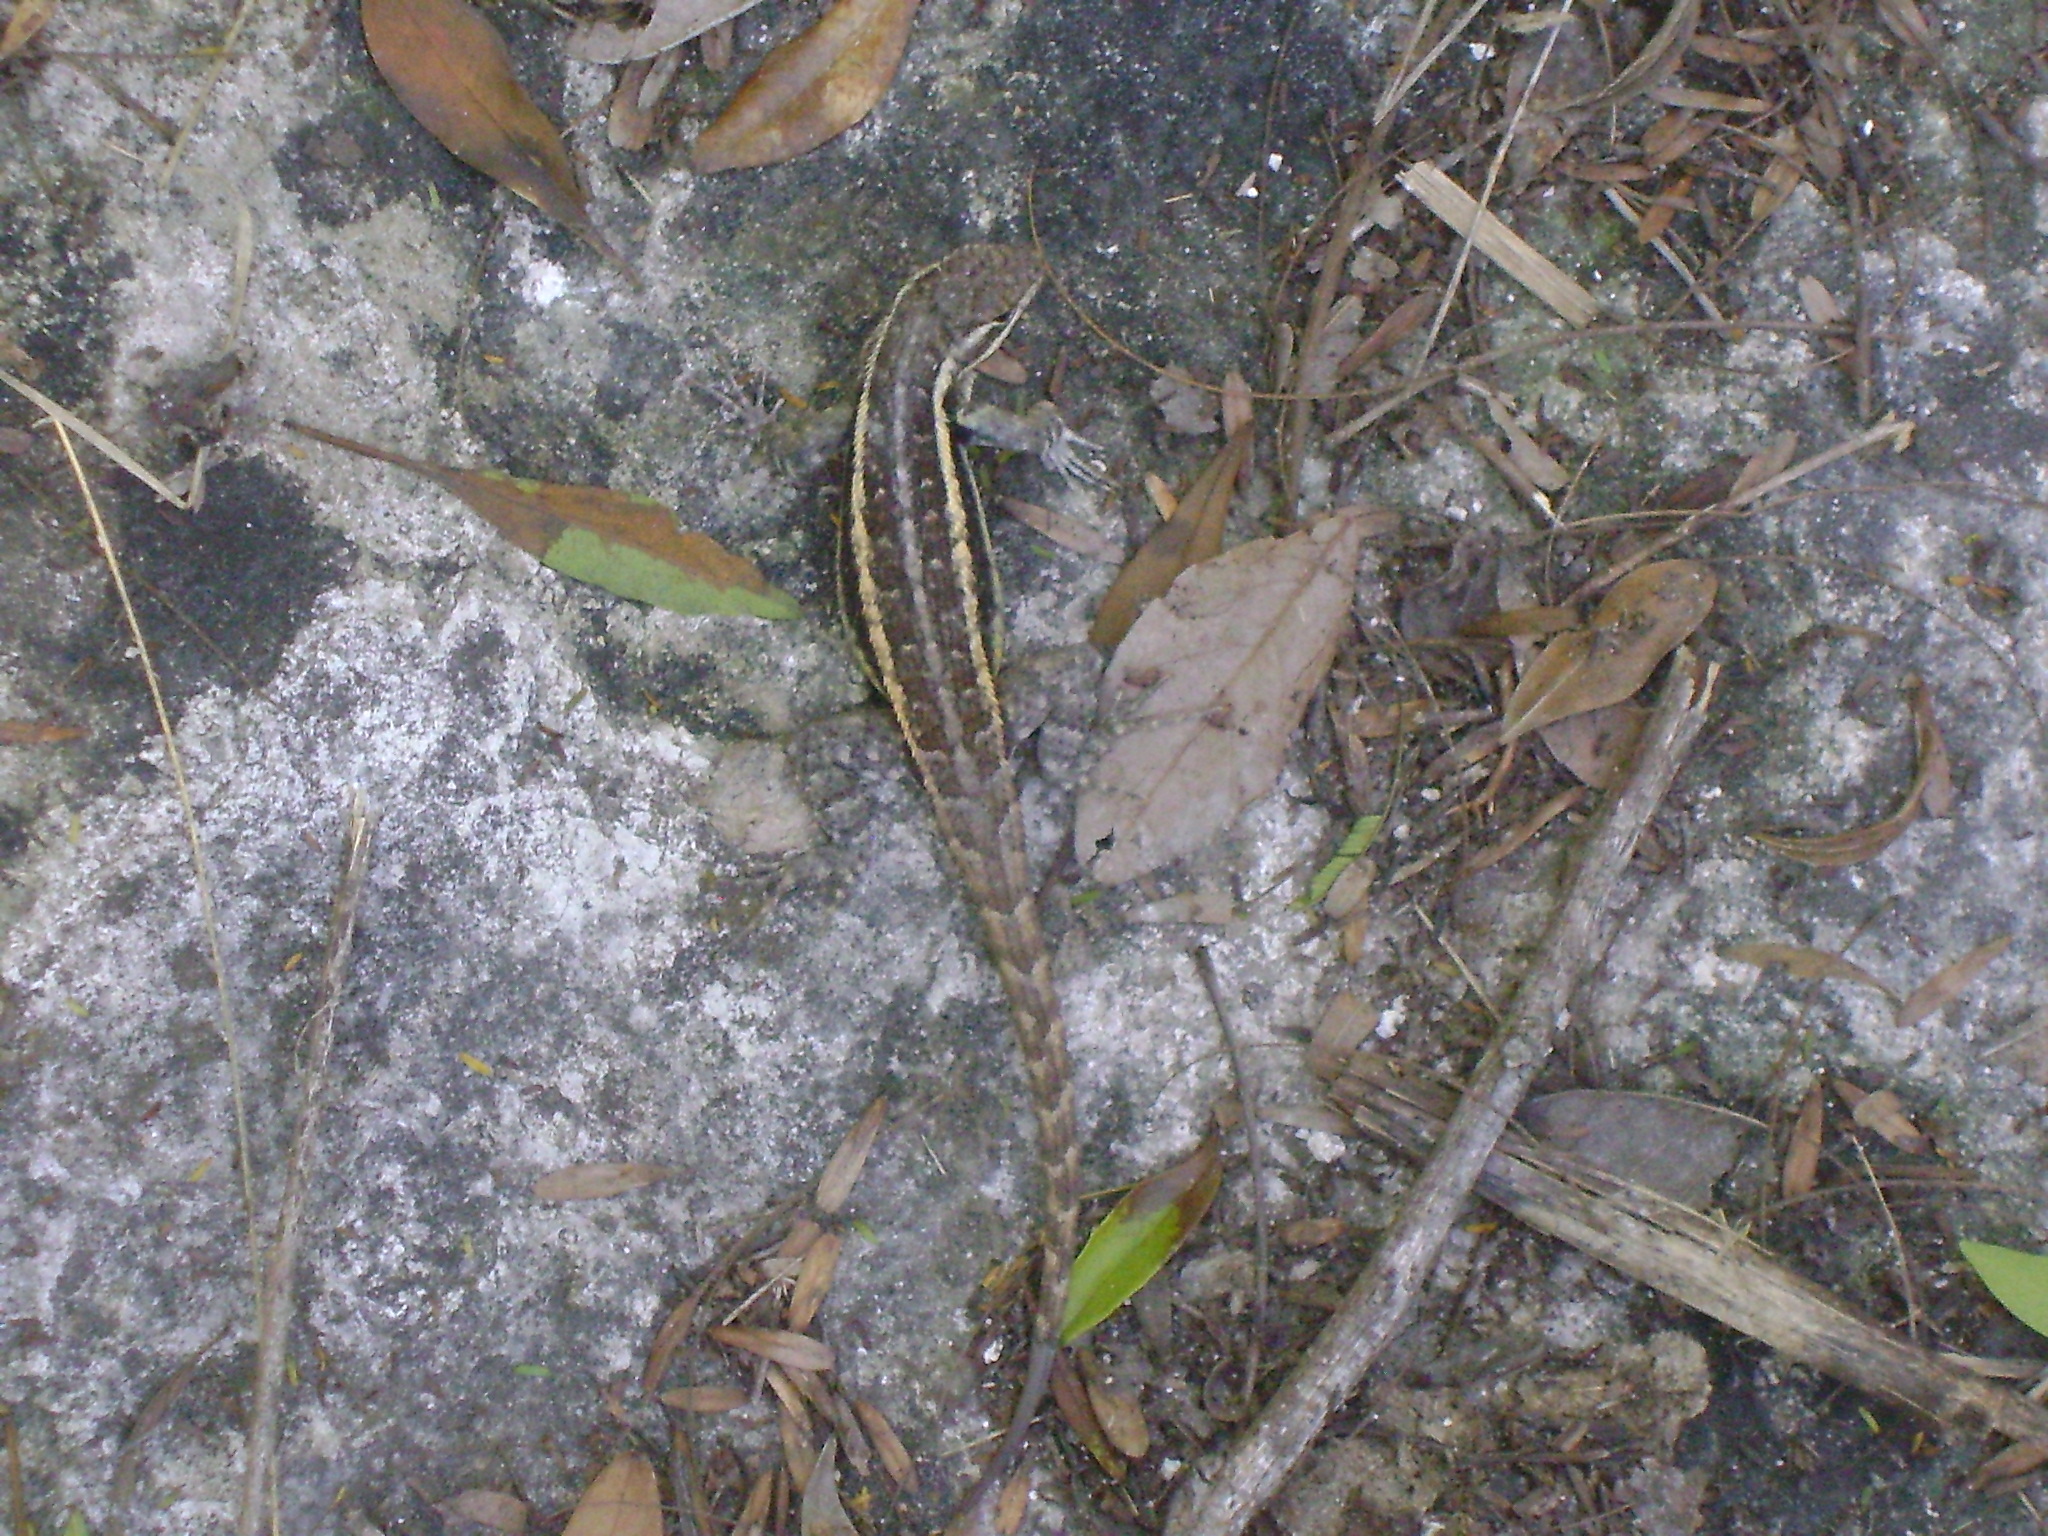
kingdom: Animalia
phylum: Chordata
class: Squamata
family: Phrynosomatidae
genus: Sceloporus
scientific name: Sceloporus variabilis
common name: Rosebelly lizard
